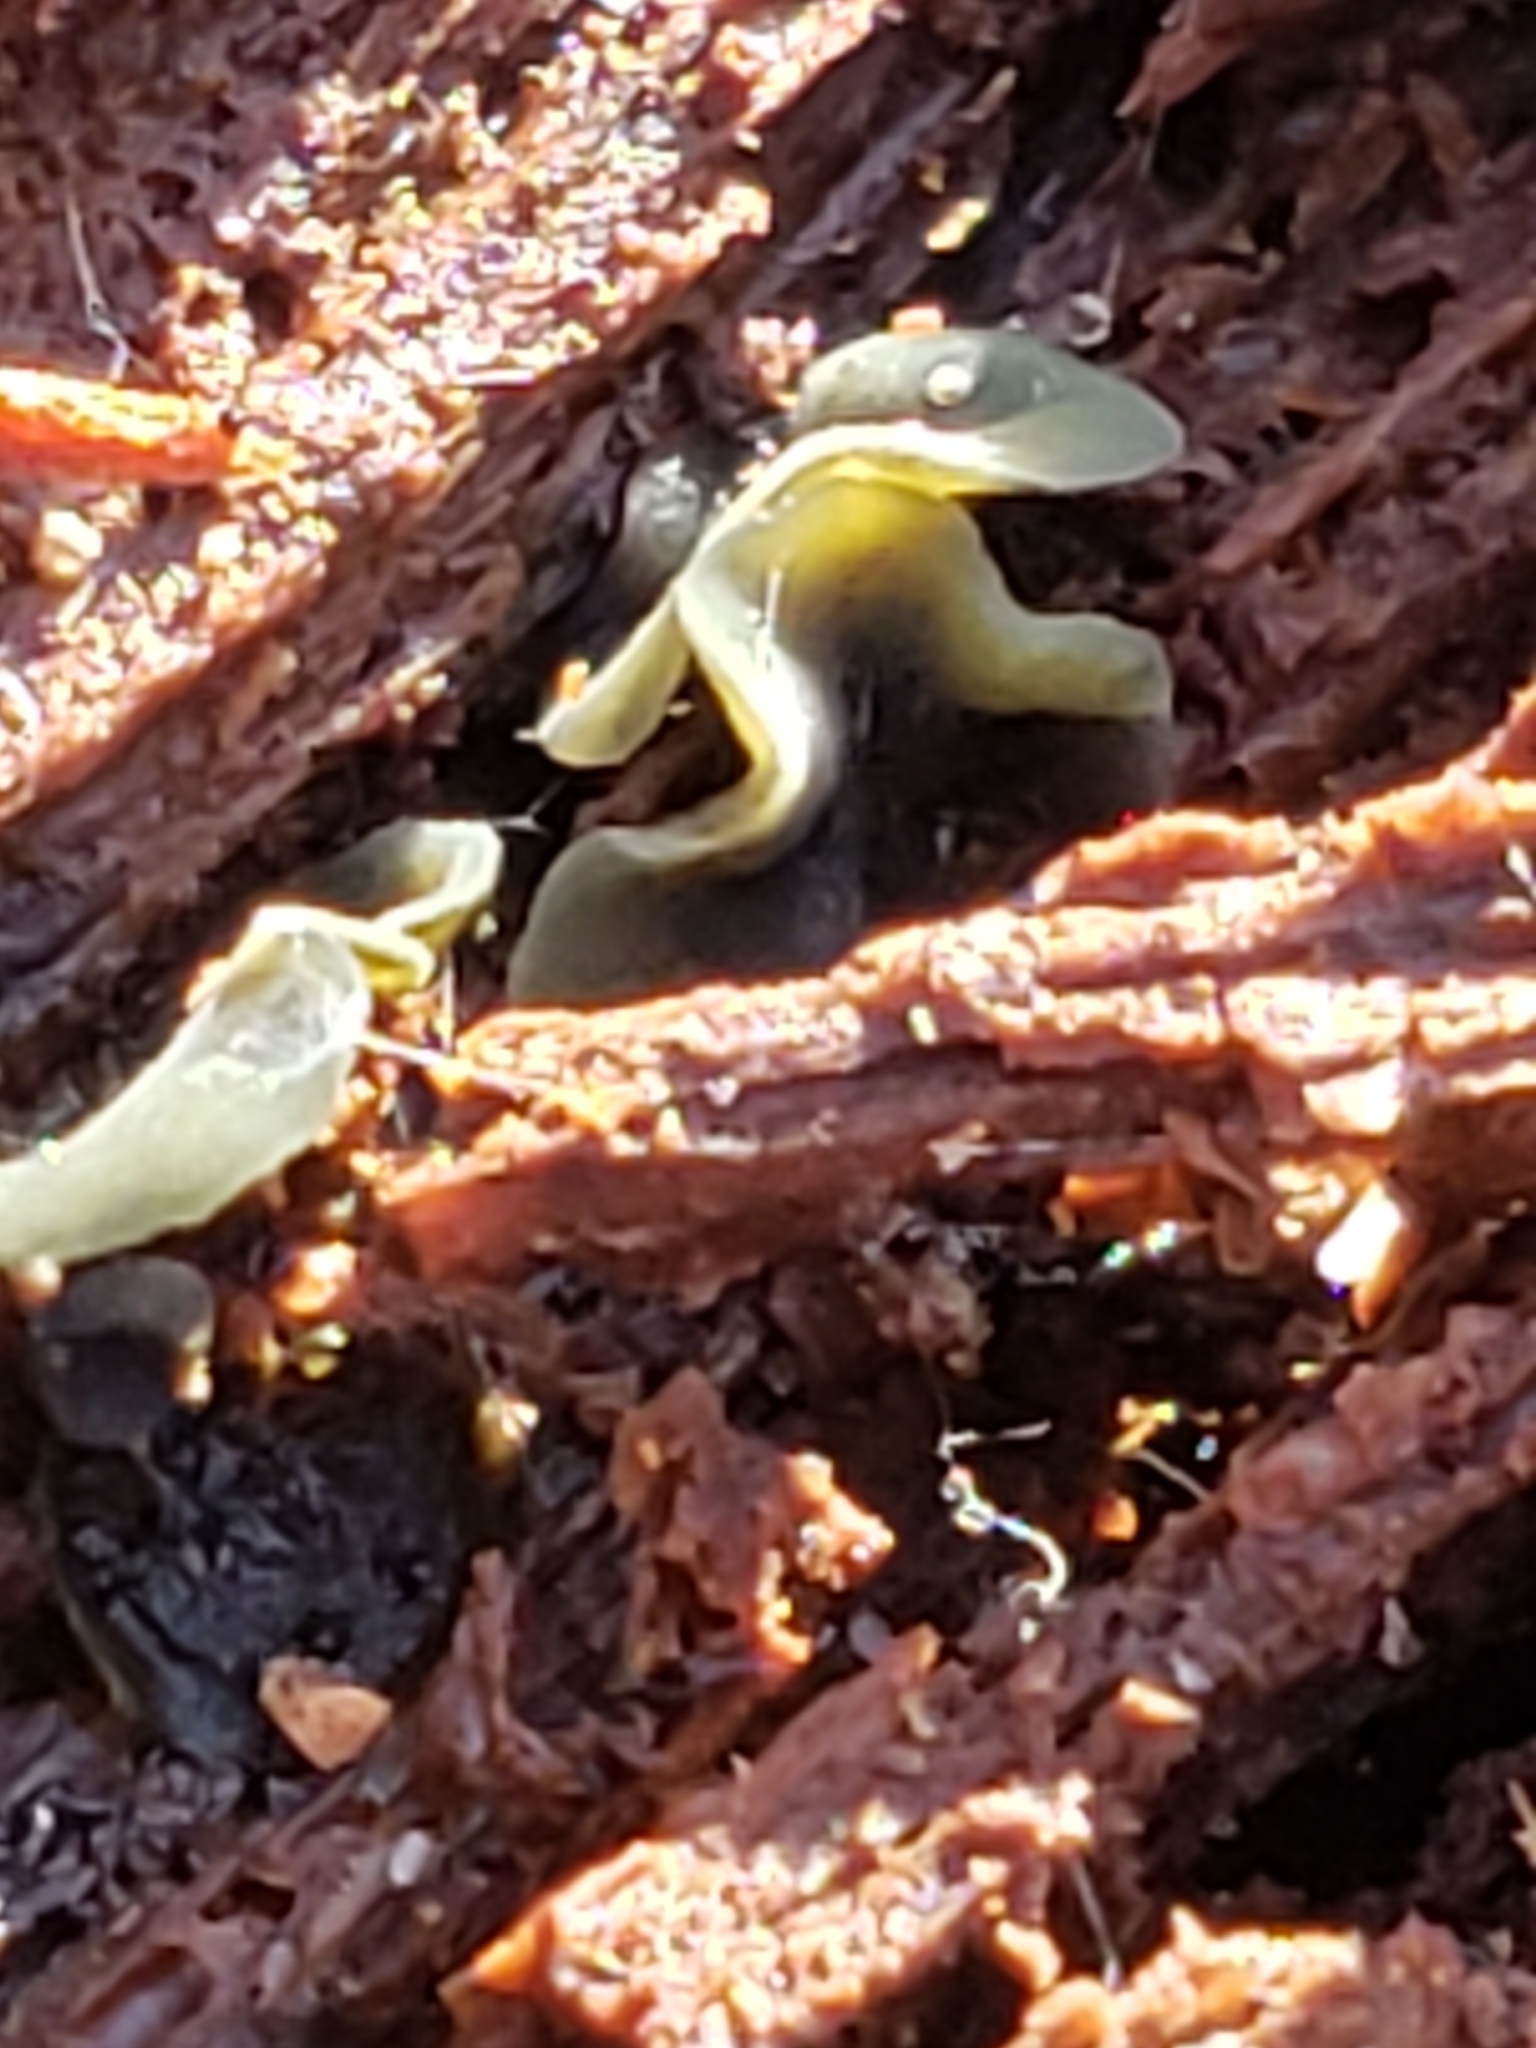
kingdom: Fungi
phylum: Ascomycota
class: Leotiomycetes
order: Helotiales
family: Chlorospleniaceae
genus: Chlorosplenium
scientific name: Chlorosplenium chlora
